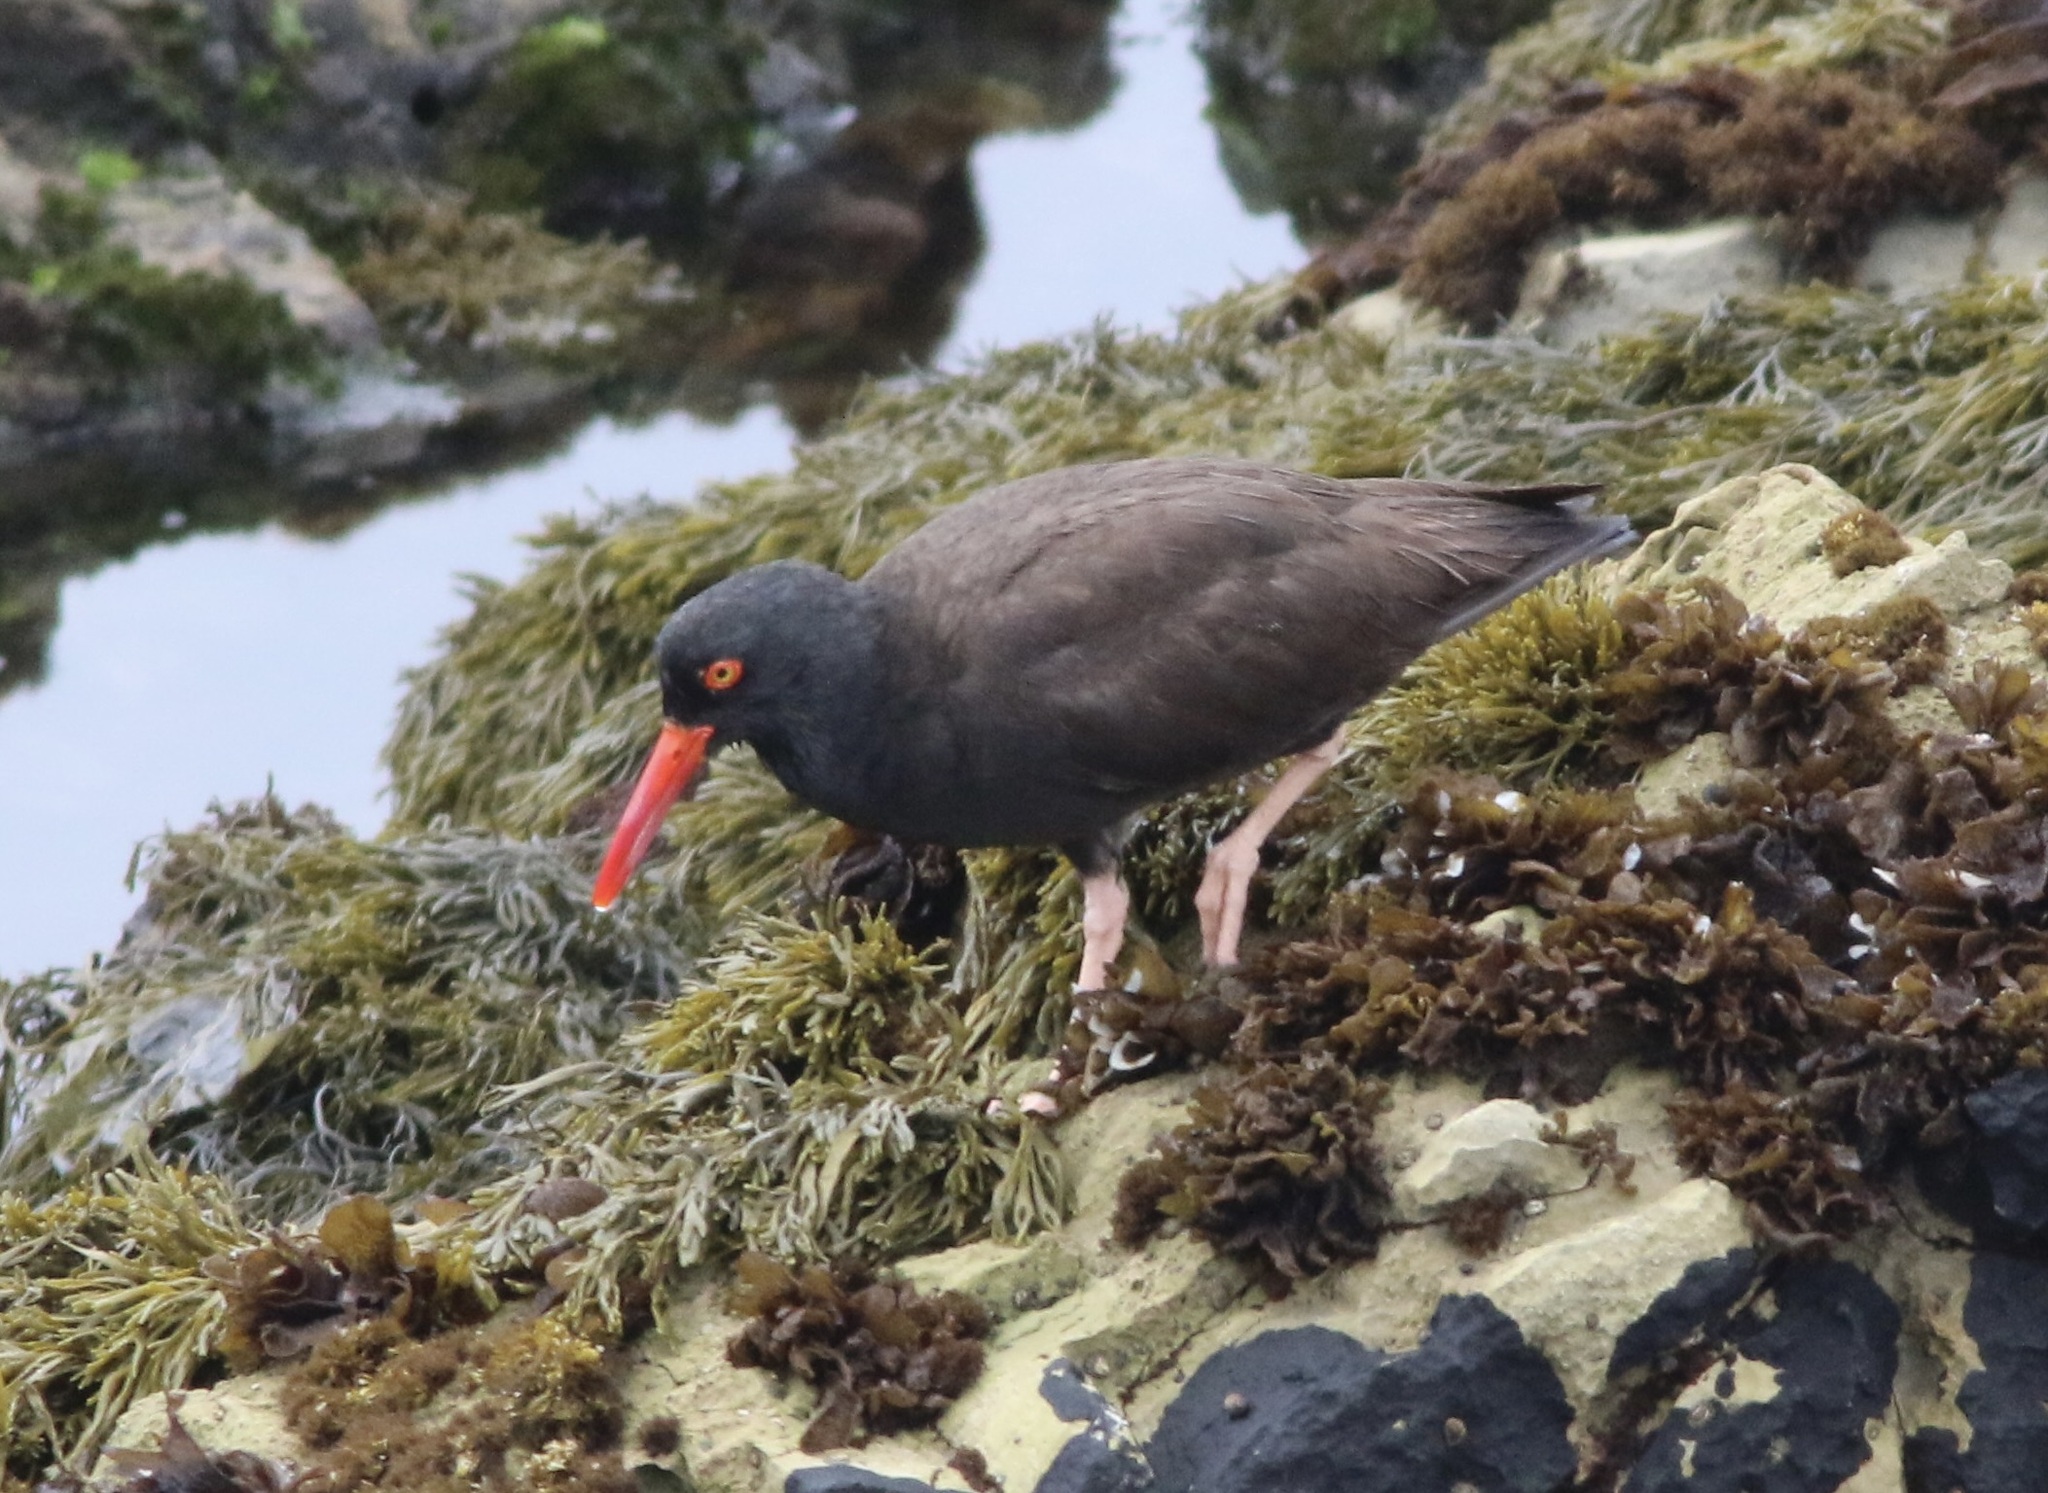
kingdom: Animalia
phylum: Chordata
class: Aves
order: Charadriiformes
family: Haematopodidae
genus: Haematopus
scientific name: Haematopus bachmani
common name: Black oystercatcher
